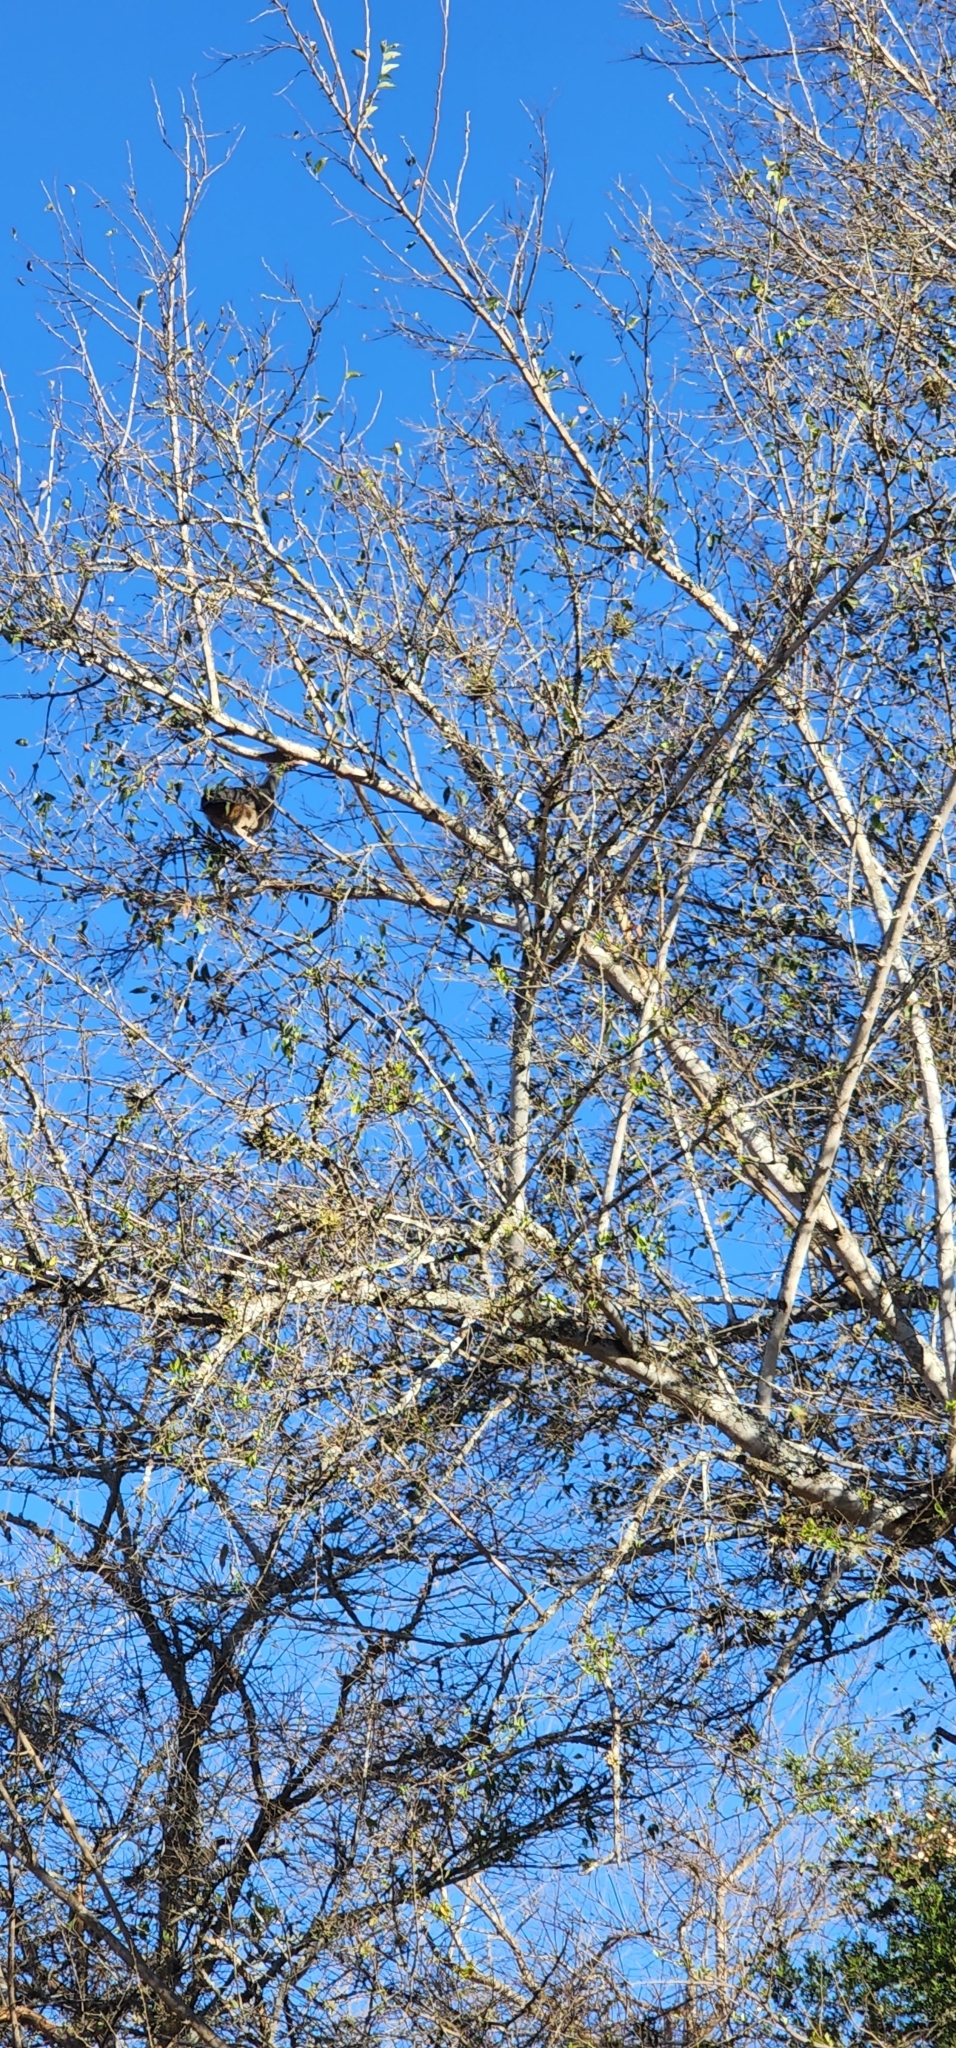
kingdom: Animalia
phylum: Chordata
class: Aves
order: Galliformes
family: Cracidae
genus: Ortalis
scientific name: Ortalis canicollis
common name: Chaco chachalaca
